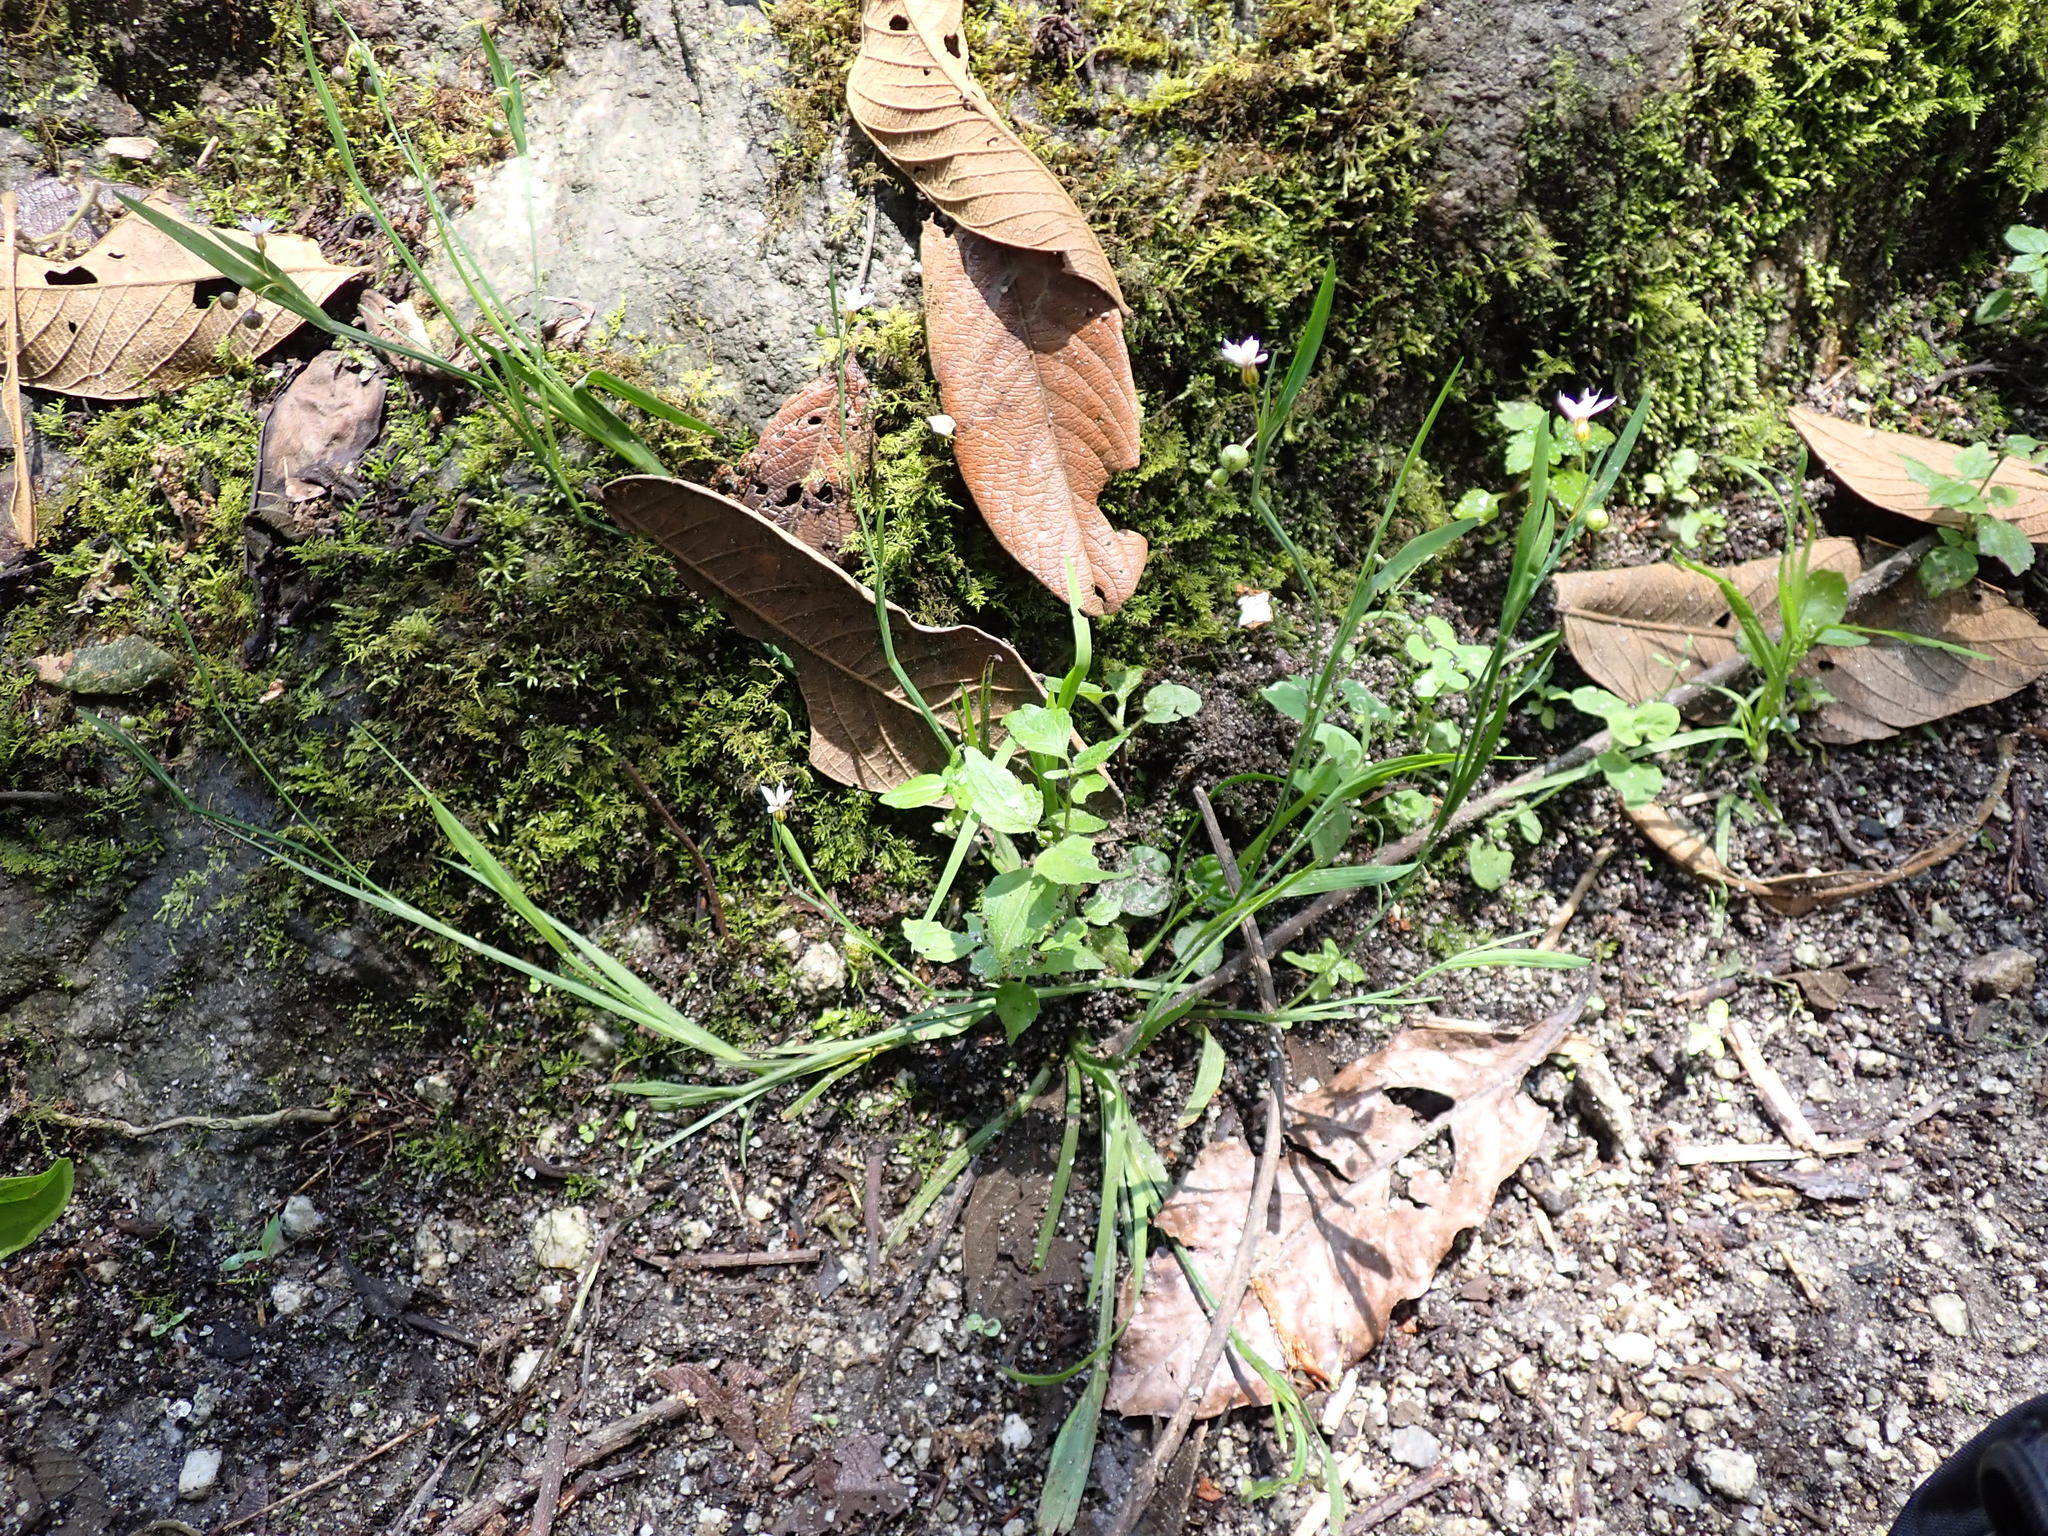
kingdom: Plantae
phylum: Tracheophyta
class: Liliopsida
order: Asparagales
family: Iridaceae
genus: Sisyrinchium
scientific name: Sisyrinchium laxum
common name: Veined yellow-eyed-grass
